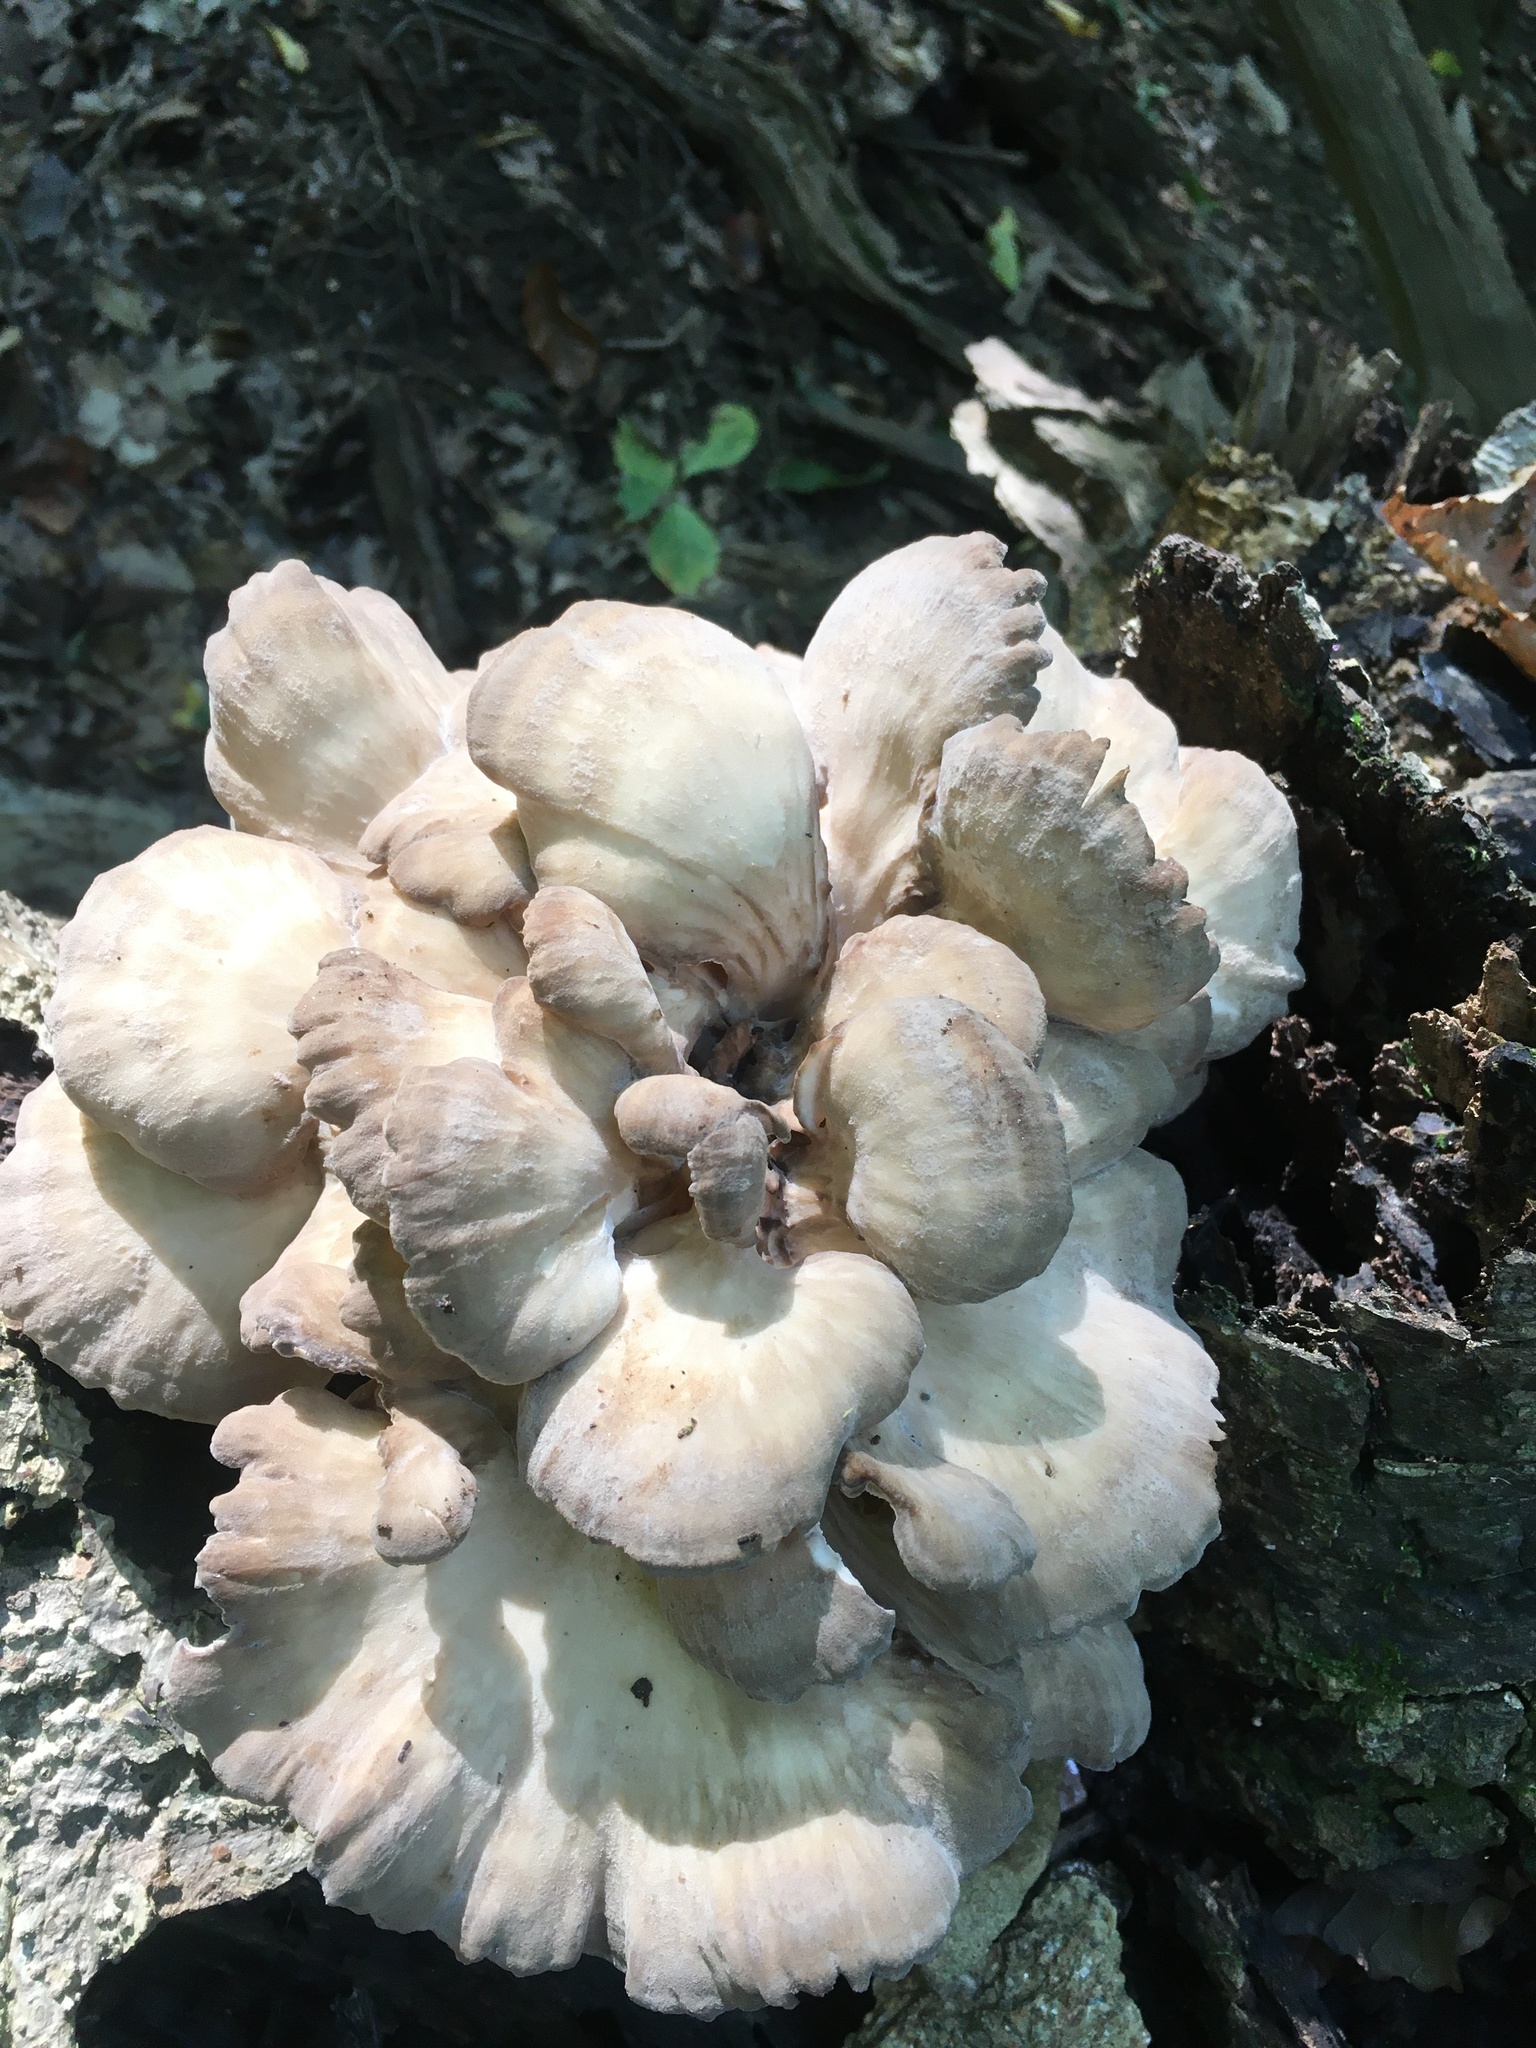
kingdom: Fungi
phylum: Basidiomycota
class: Agaricomycetes
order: Polyporales
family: Grifolaceae
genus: Grifola
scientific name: Grifola frondosa
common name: Hen of the woods
